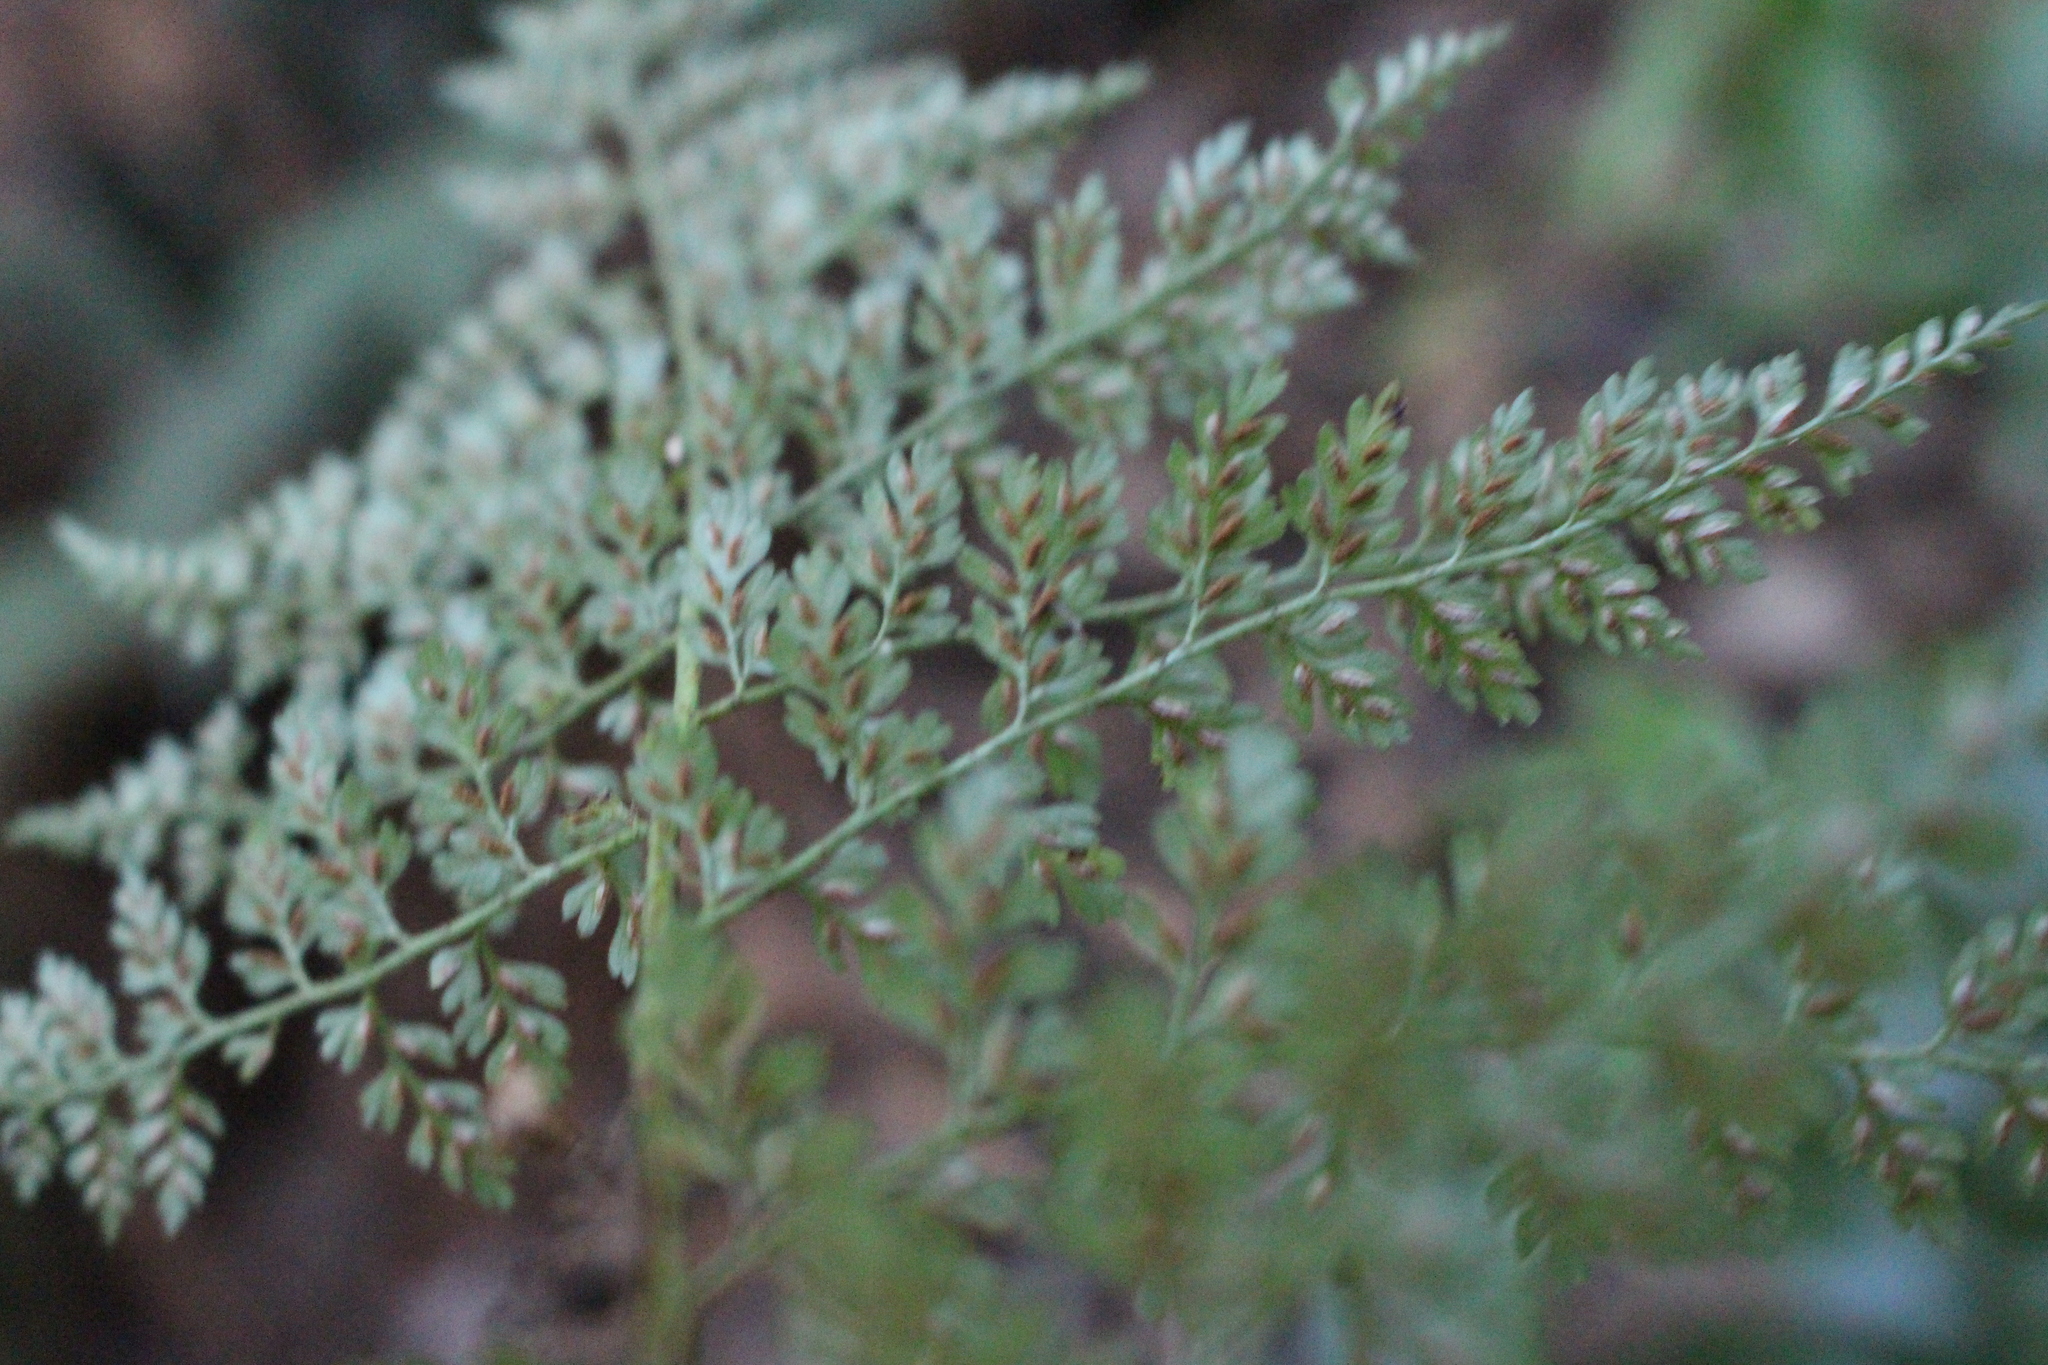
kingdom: Plantae
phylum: Tracheophyta
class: Polypodiopsida
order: Polypodiales
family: Aspleniaceae
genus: Asplenium
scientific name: Asplenium hookerianum
